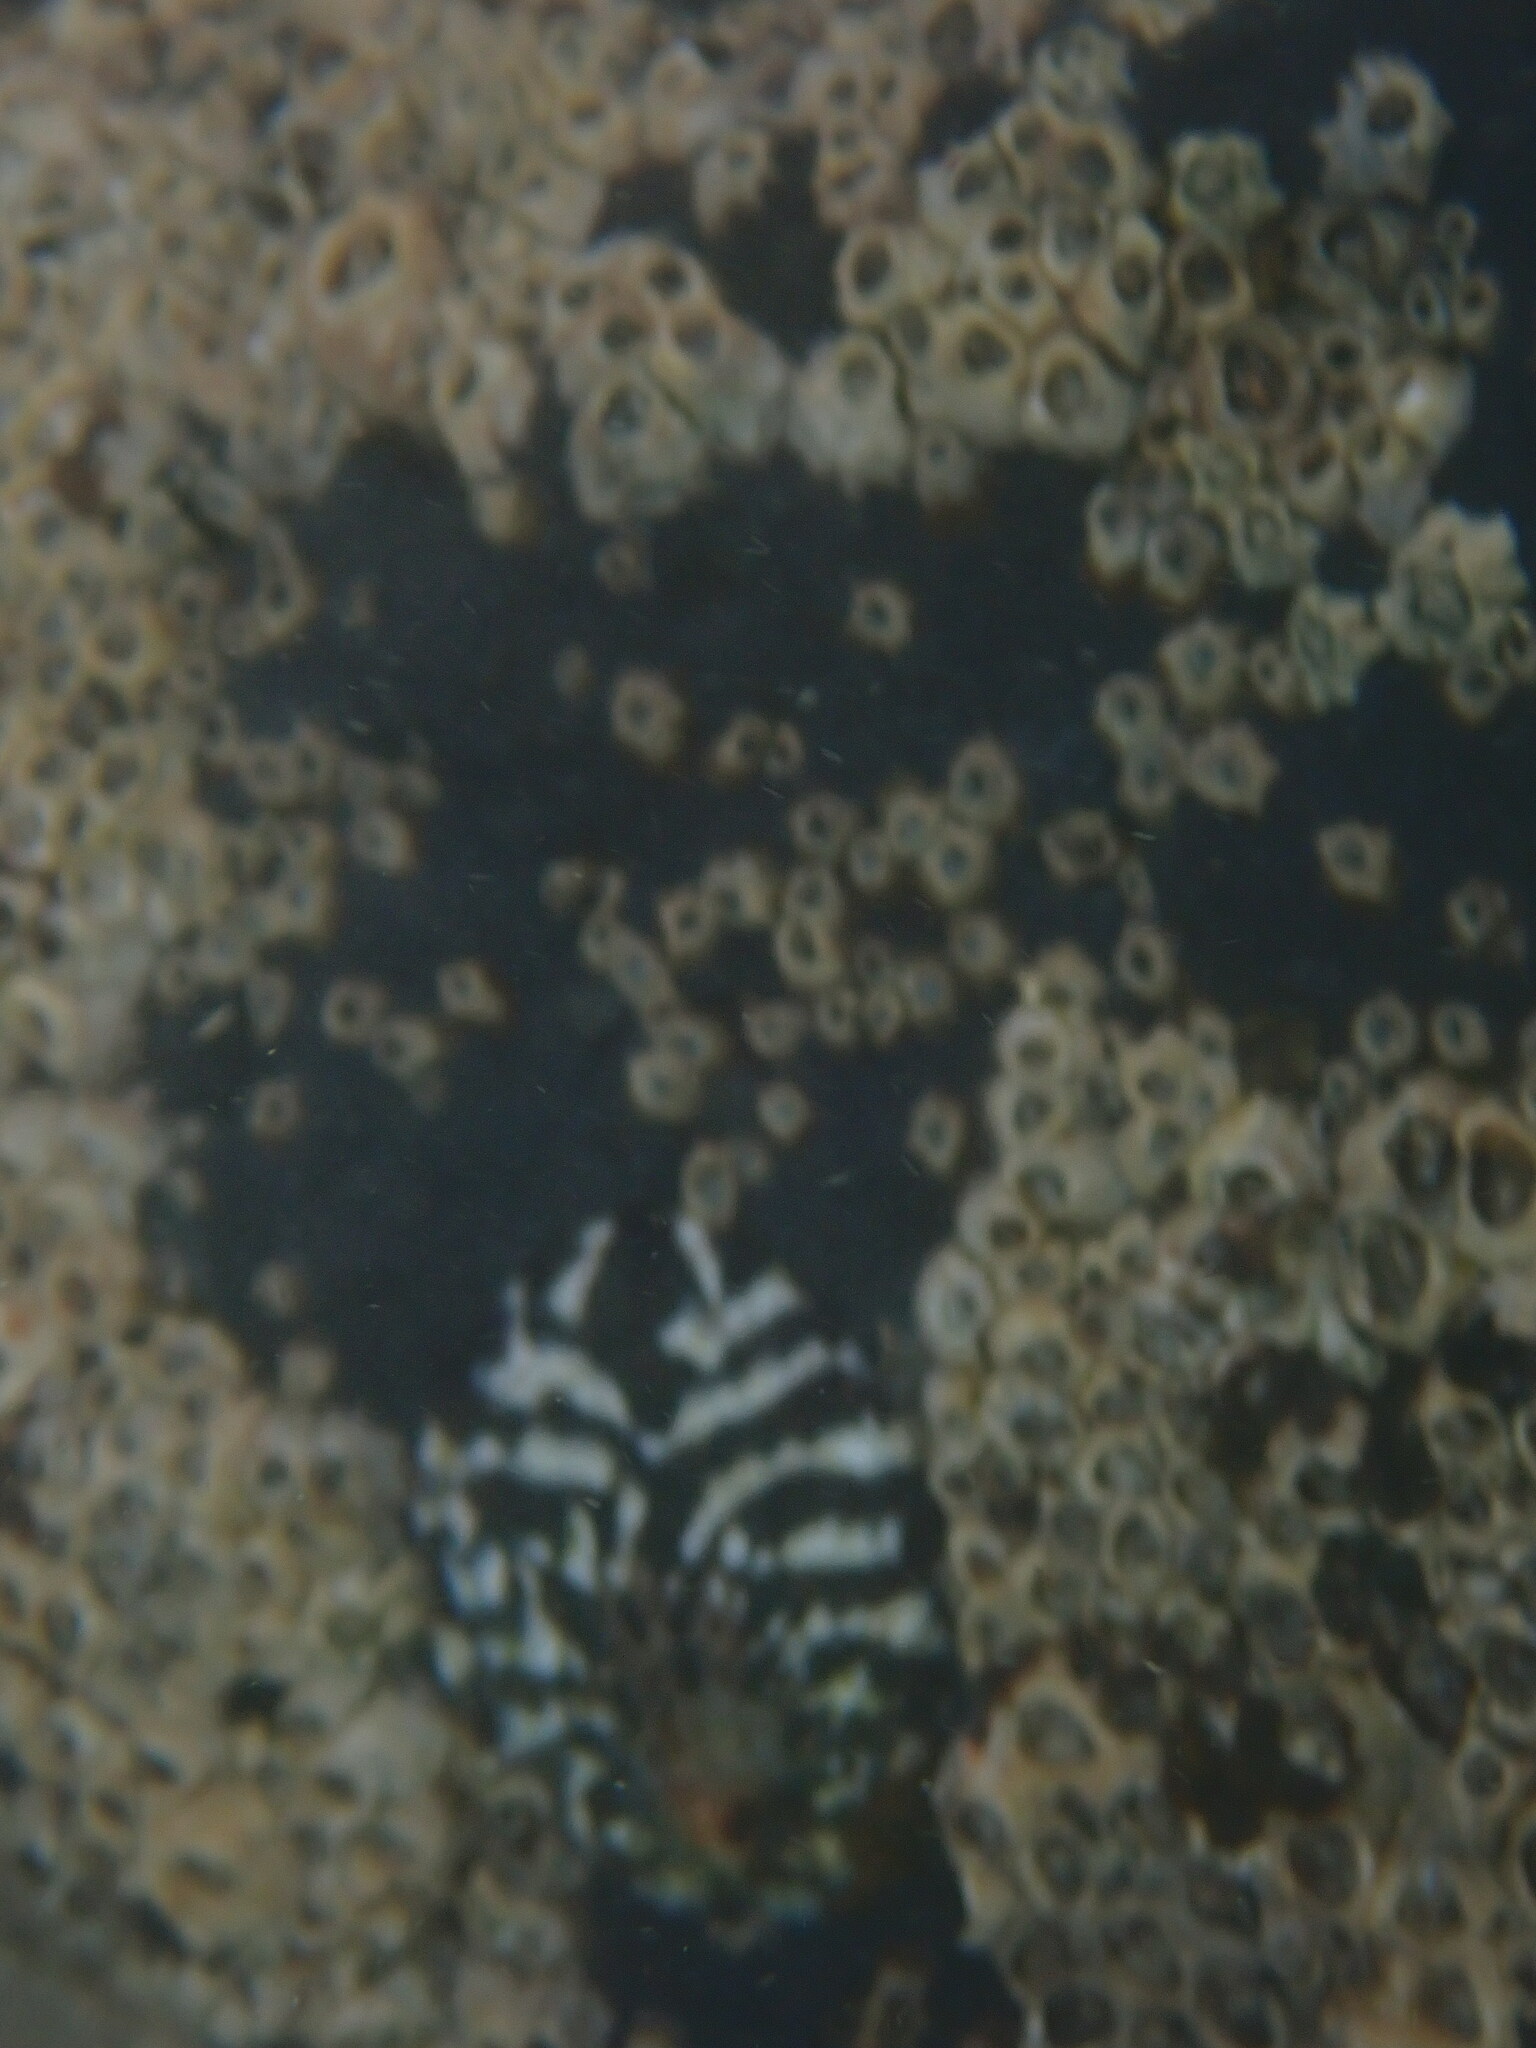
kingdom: Animalia
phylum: Mollusca
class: Gastropoda
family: Nacellidae
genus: Cellana
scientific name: Cellana radians
